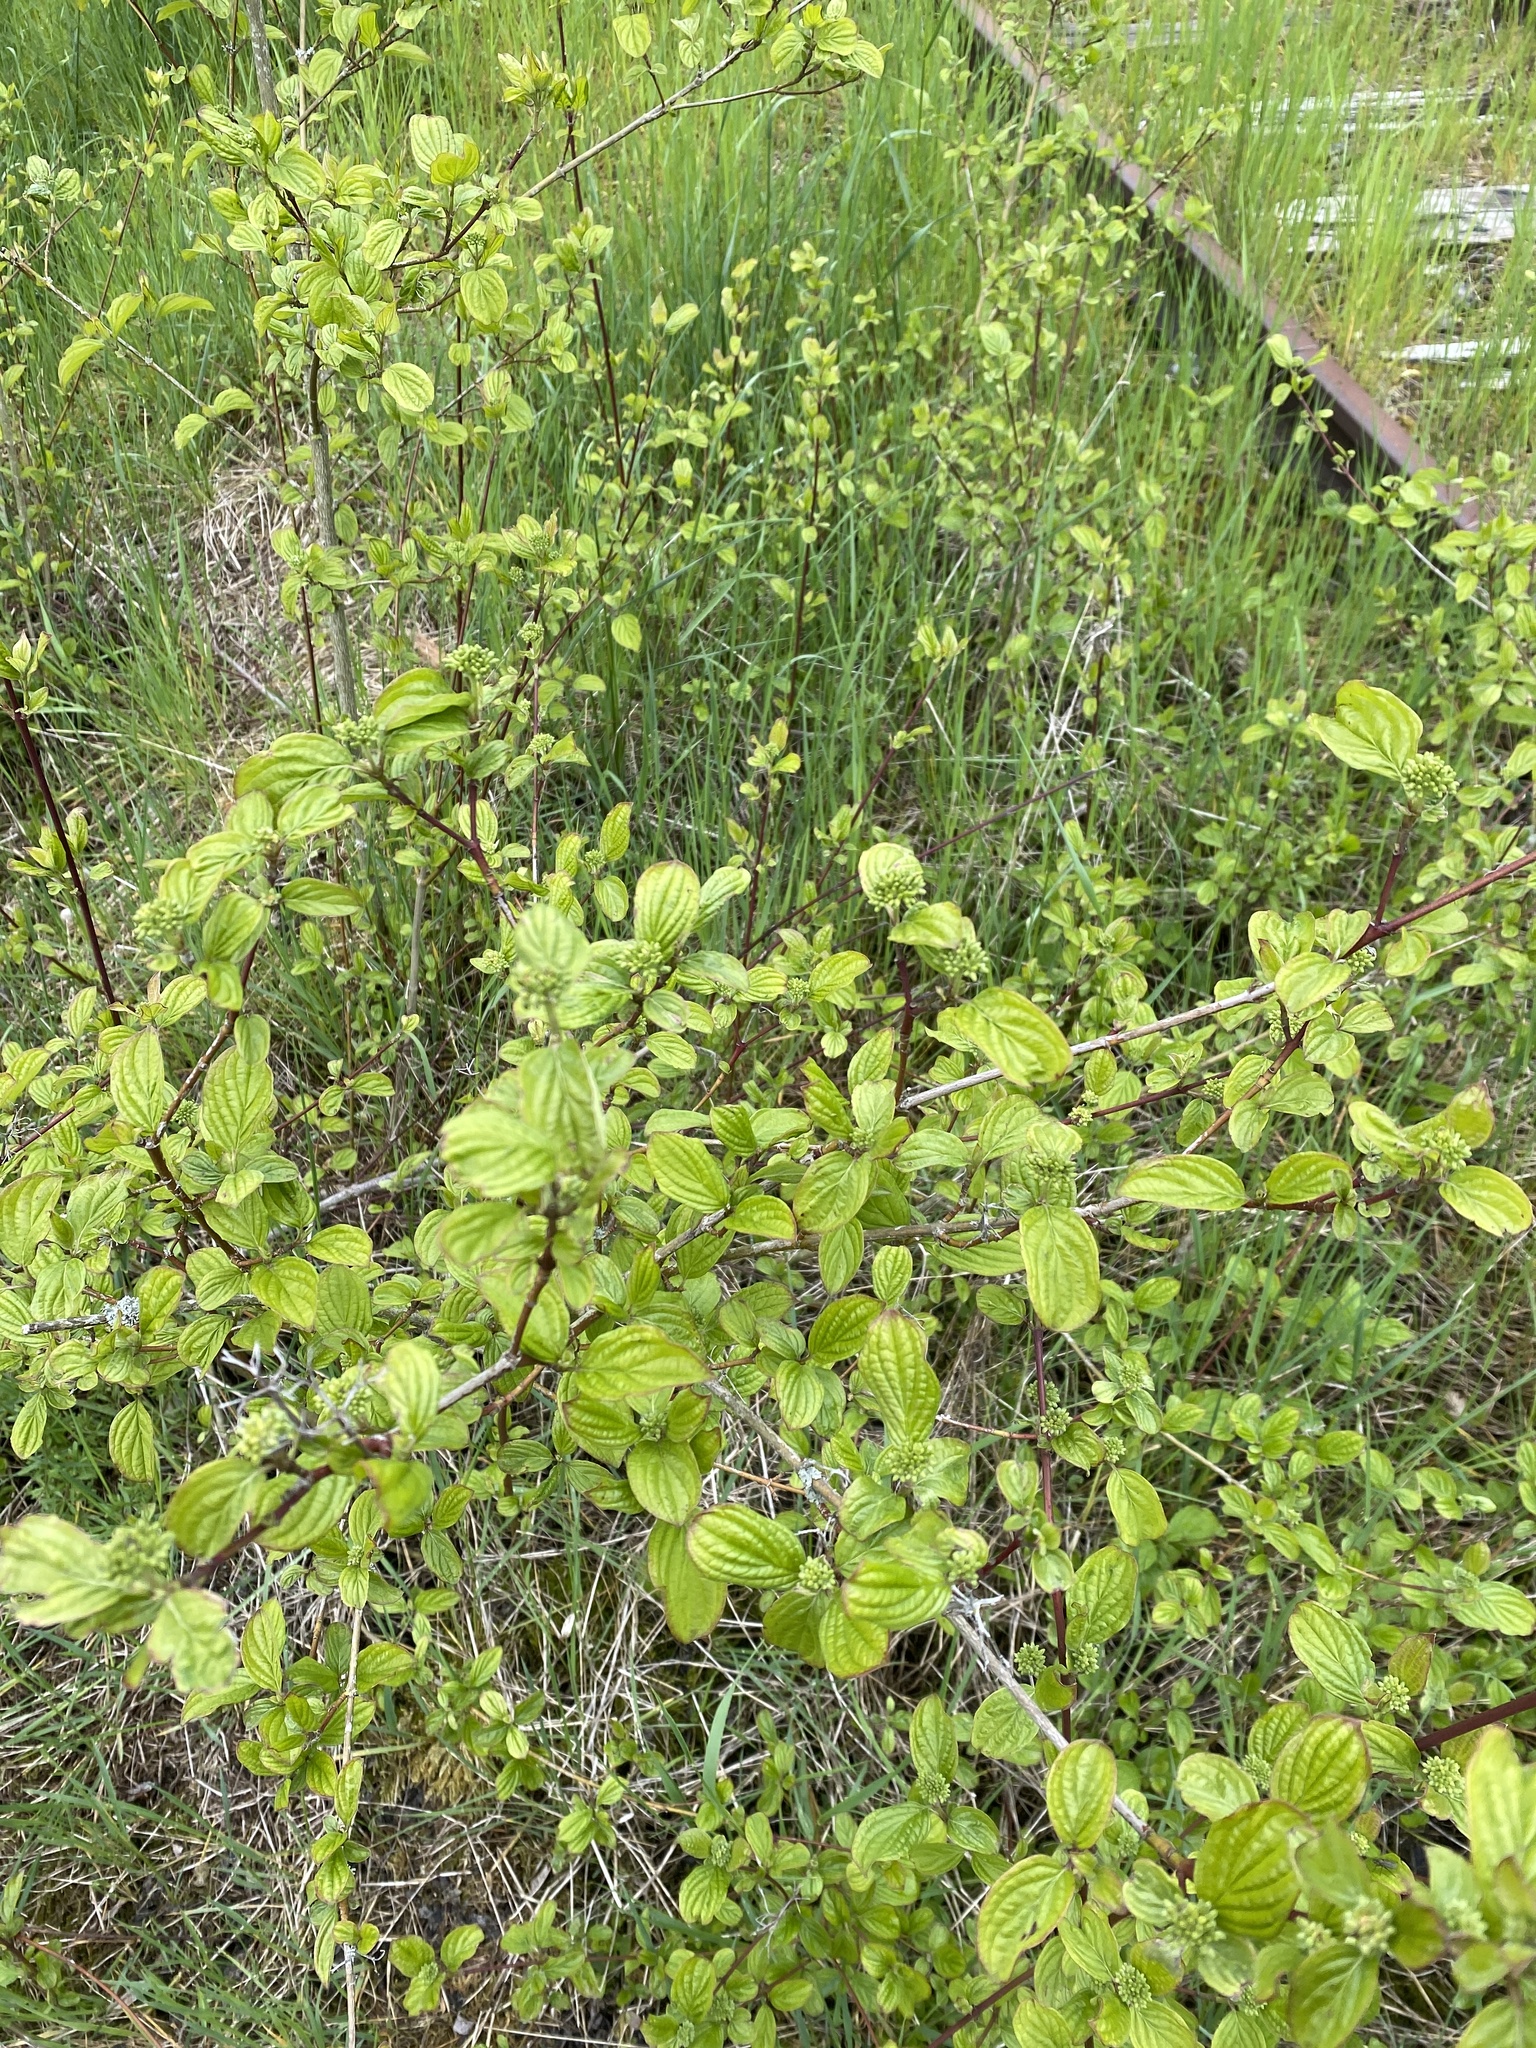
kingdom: Plantae
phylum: Tracheophyta
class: Magnoliopsida
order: Cornales
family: Cornaceae
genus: Cornus
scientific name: Cornus sanguinea
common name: Dogwood
